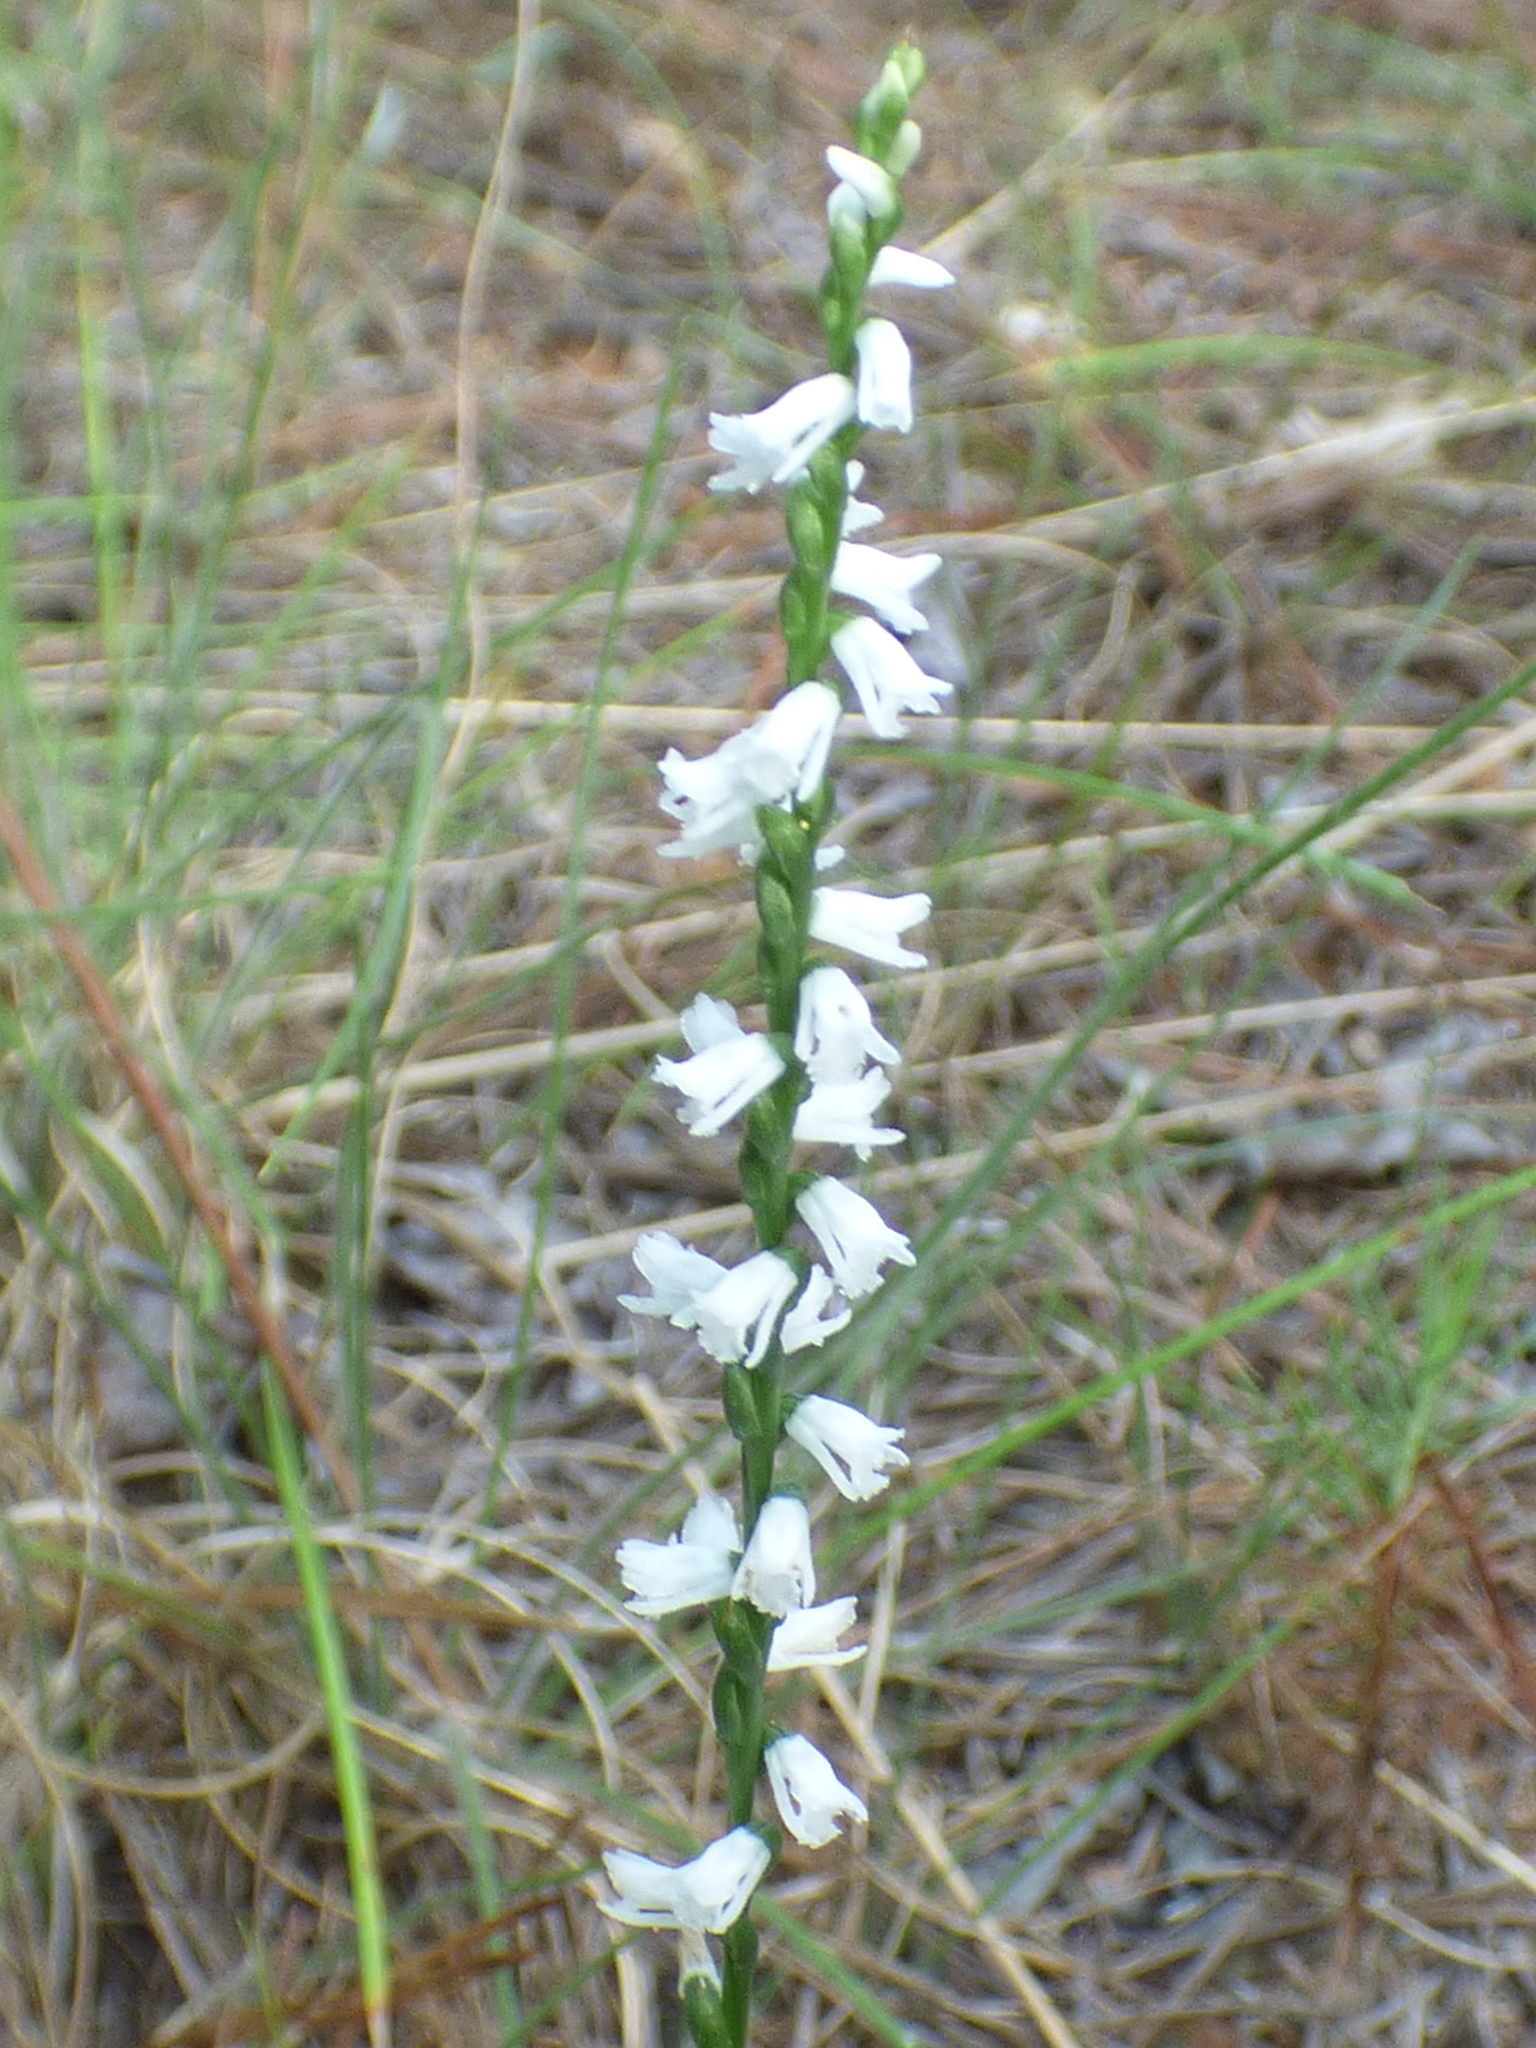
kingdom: Plantae
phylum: Tracheophyta
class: Liliopsida
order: Asparagales
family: Orchidaceae
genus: Spiranthes
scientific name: Spiranthes tuberosa
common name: Little ladies'-tresses
